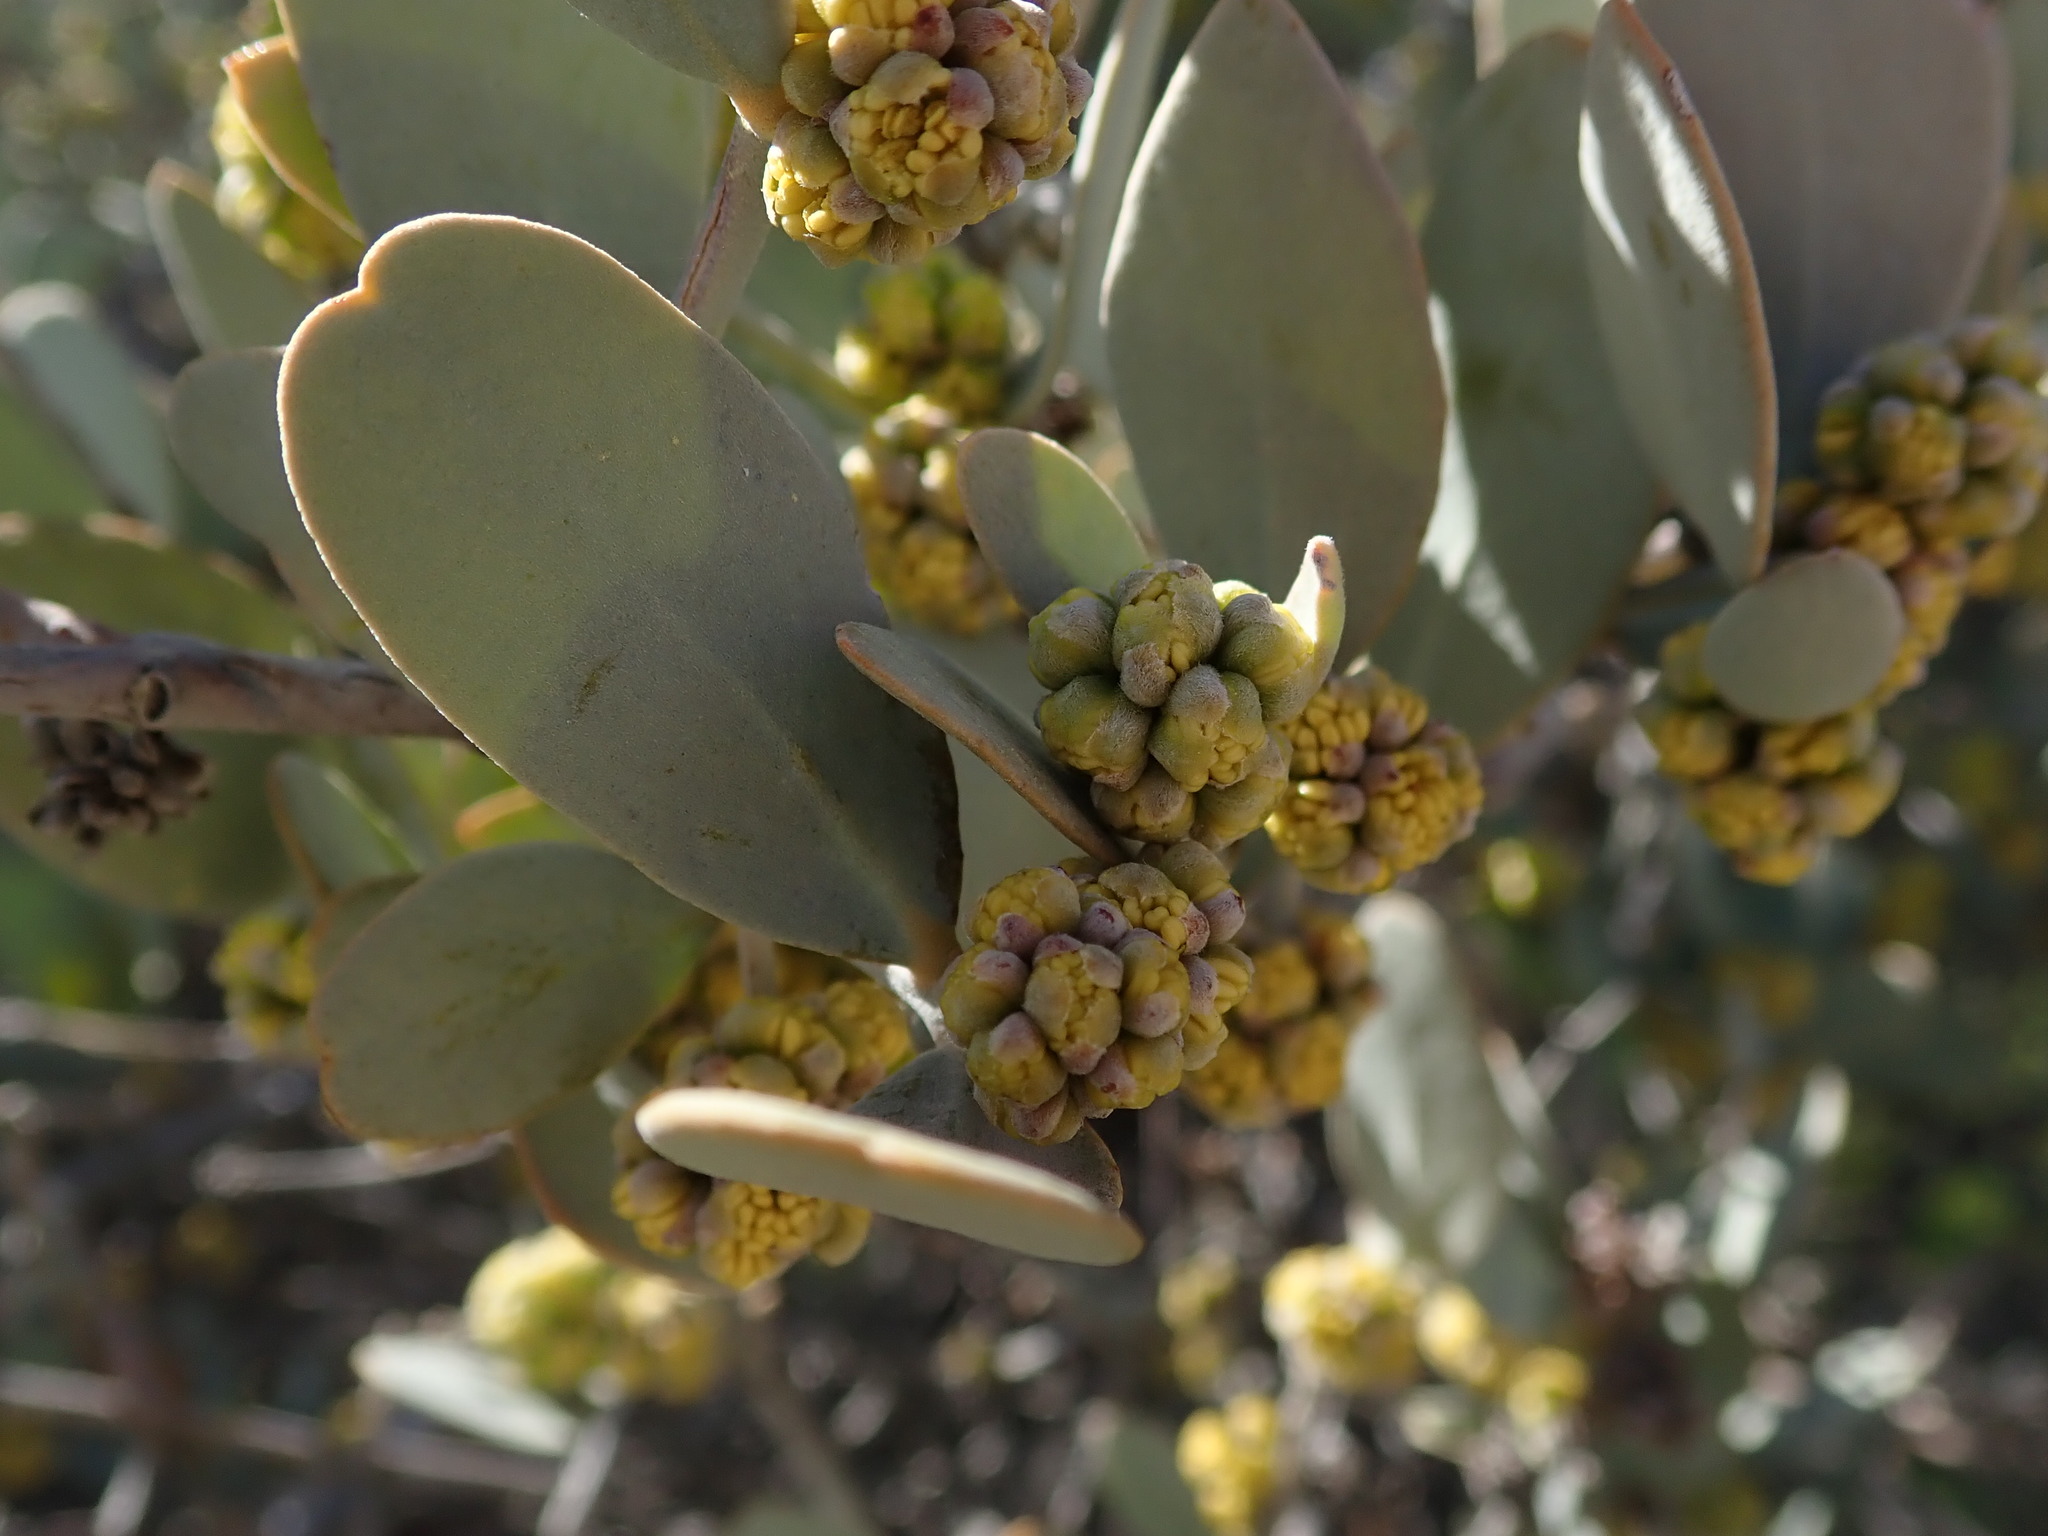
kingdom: Plantae
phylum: Tracheophyta
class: Magnoliopsida
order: Caryophyllales
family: Simmondsiaceae
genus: Simmondsia
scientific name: Simmondsia chinensis
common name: Jojoba
